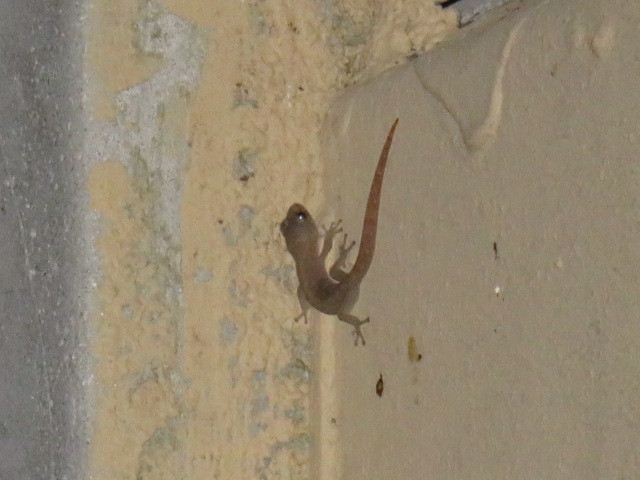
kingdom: Animalia
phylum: Chordata
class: Squamata
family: Gekkonidae
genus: Afrogecko
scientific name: Afrogecko porphyreus
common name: Marbled leaf-toed gecko
